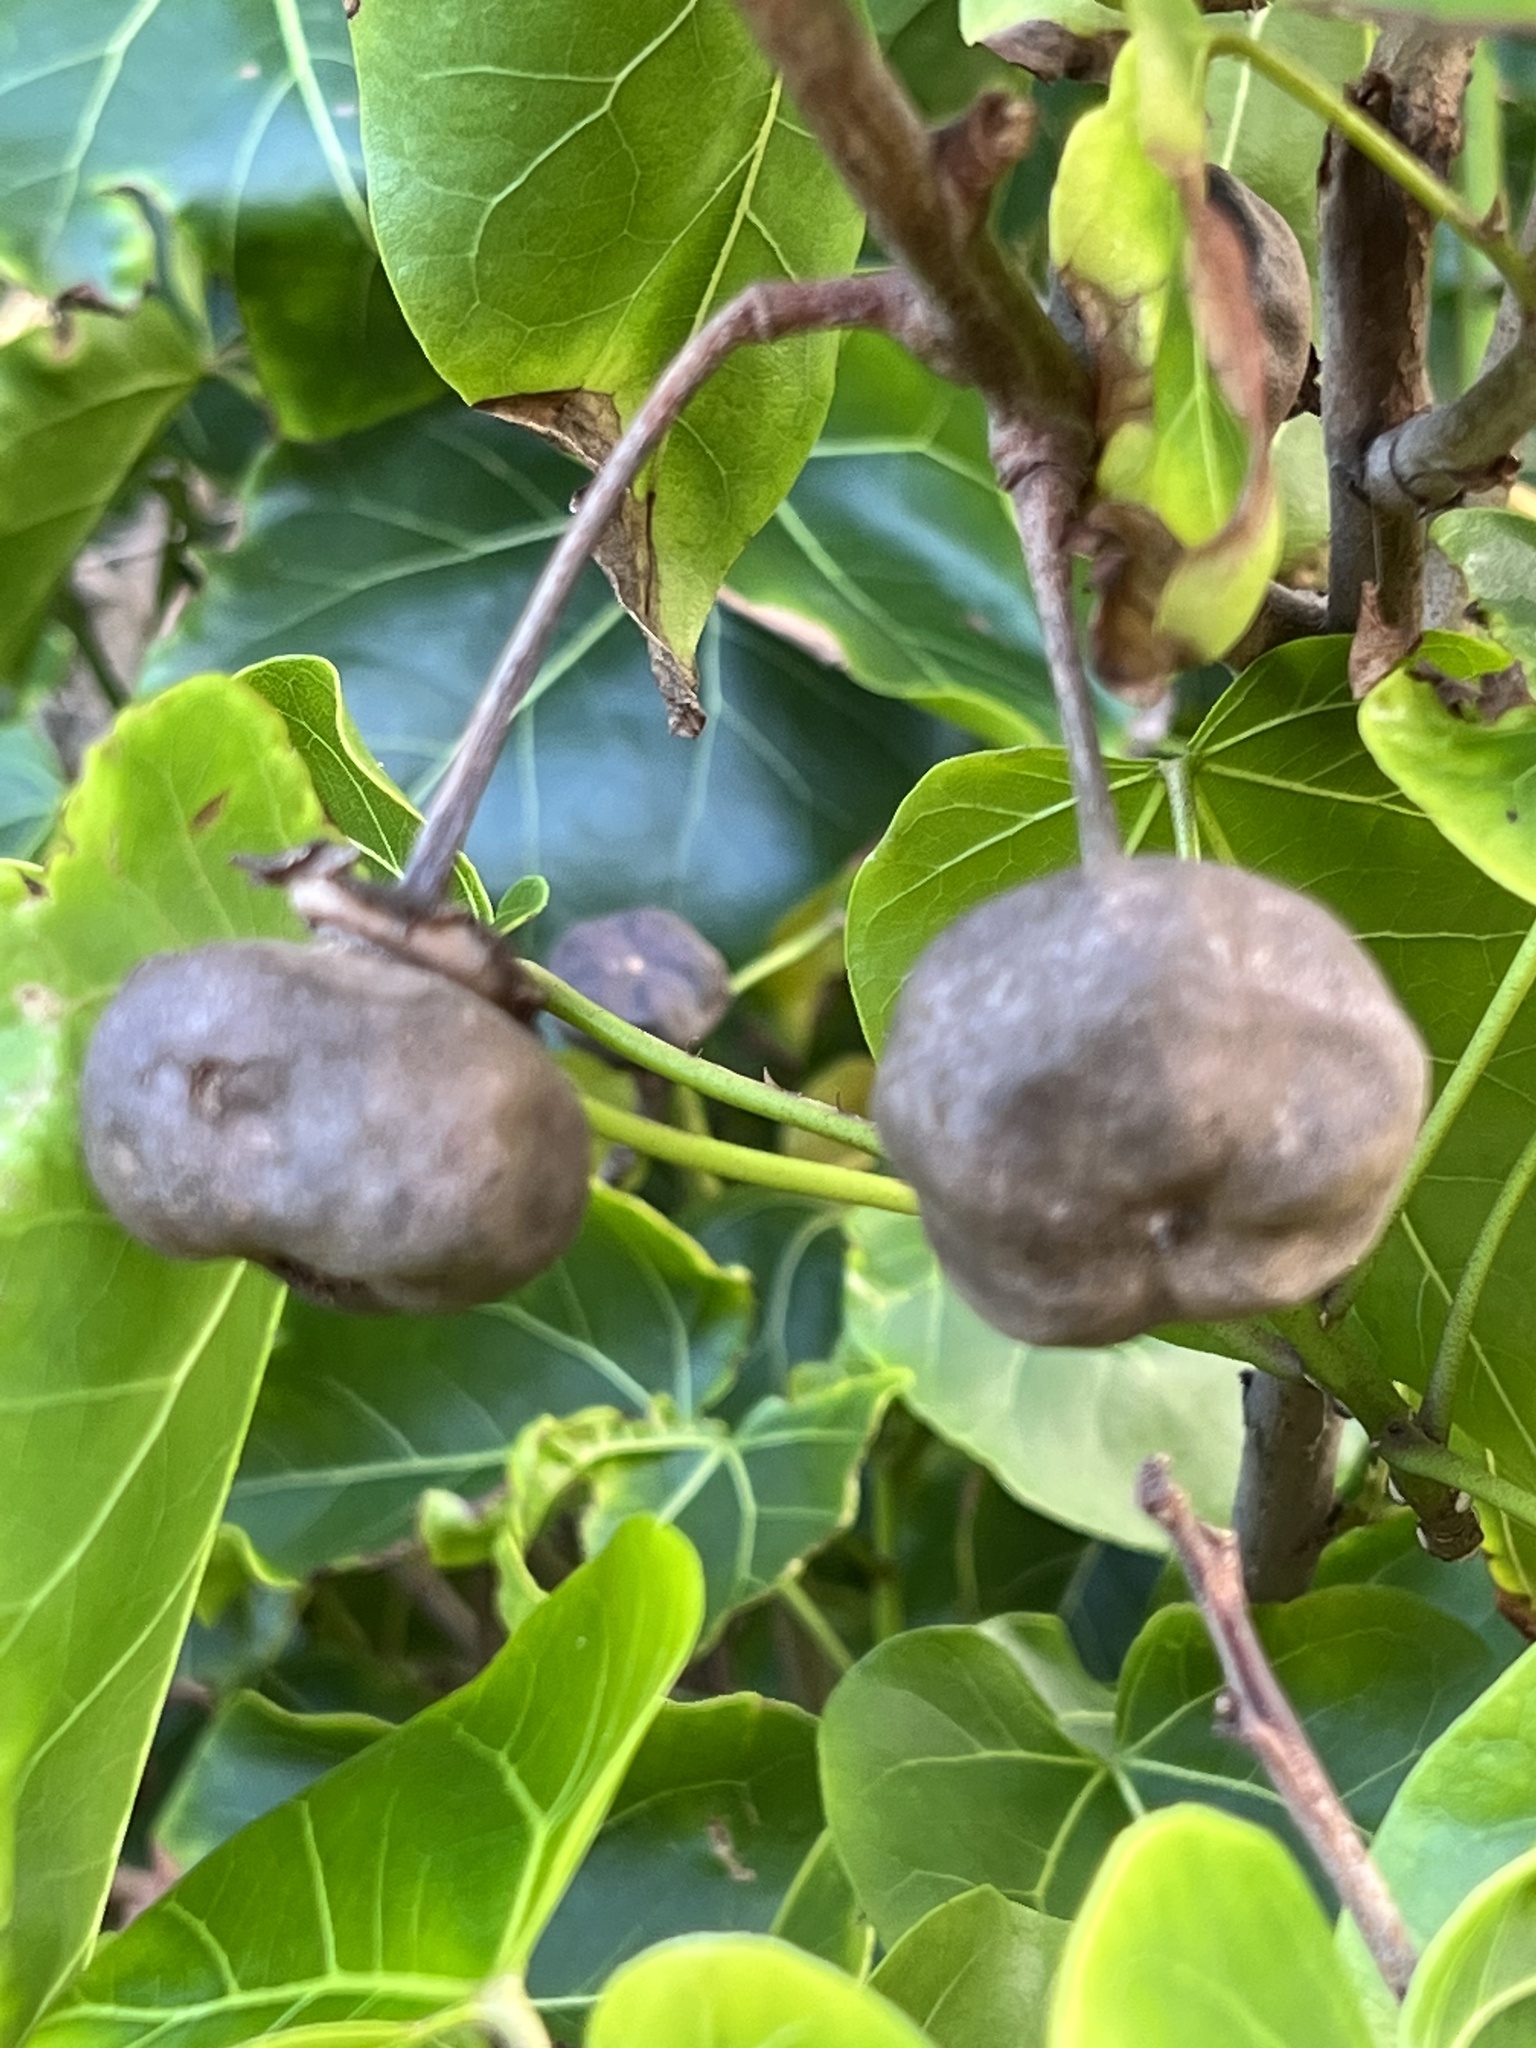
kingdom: Plantae
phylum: Tracheophyta
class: Magnoliopsida
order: Malvales
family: Malvaceae
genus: Thespesia
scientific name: Thespesia populnea
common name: Seaside mahoe
